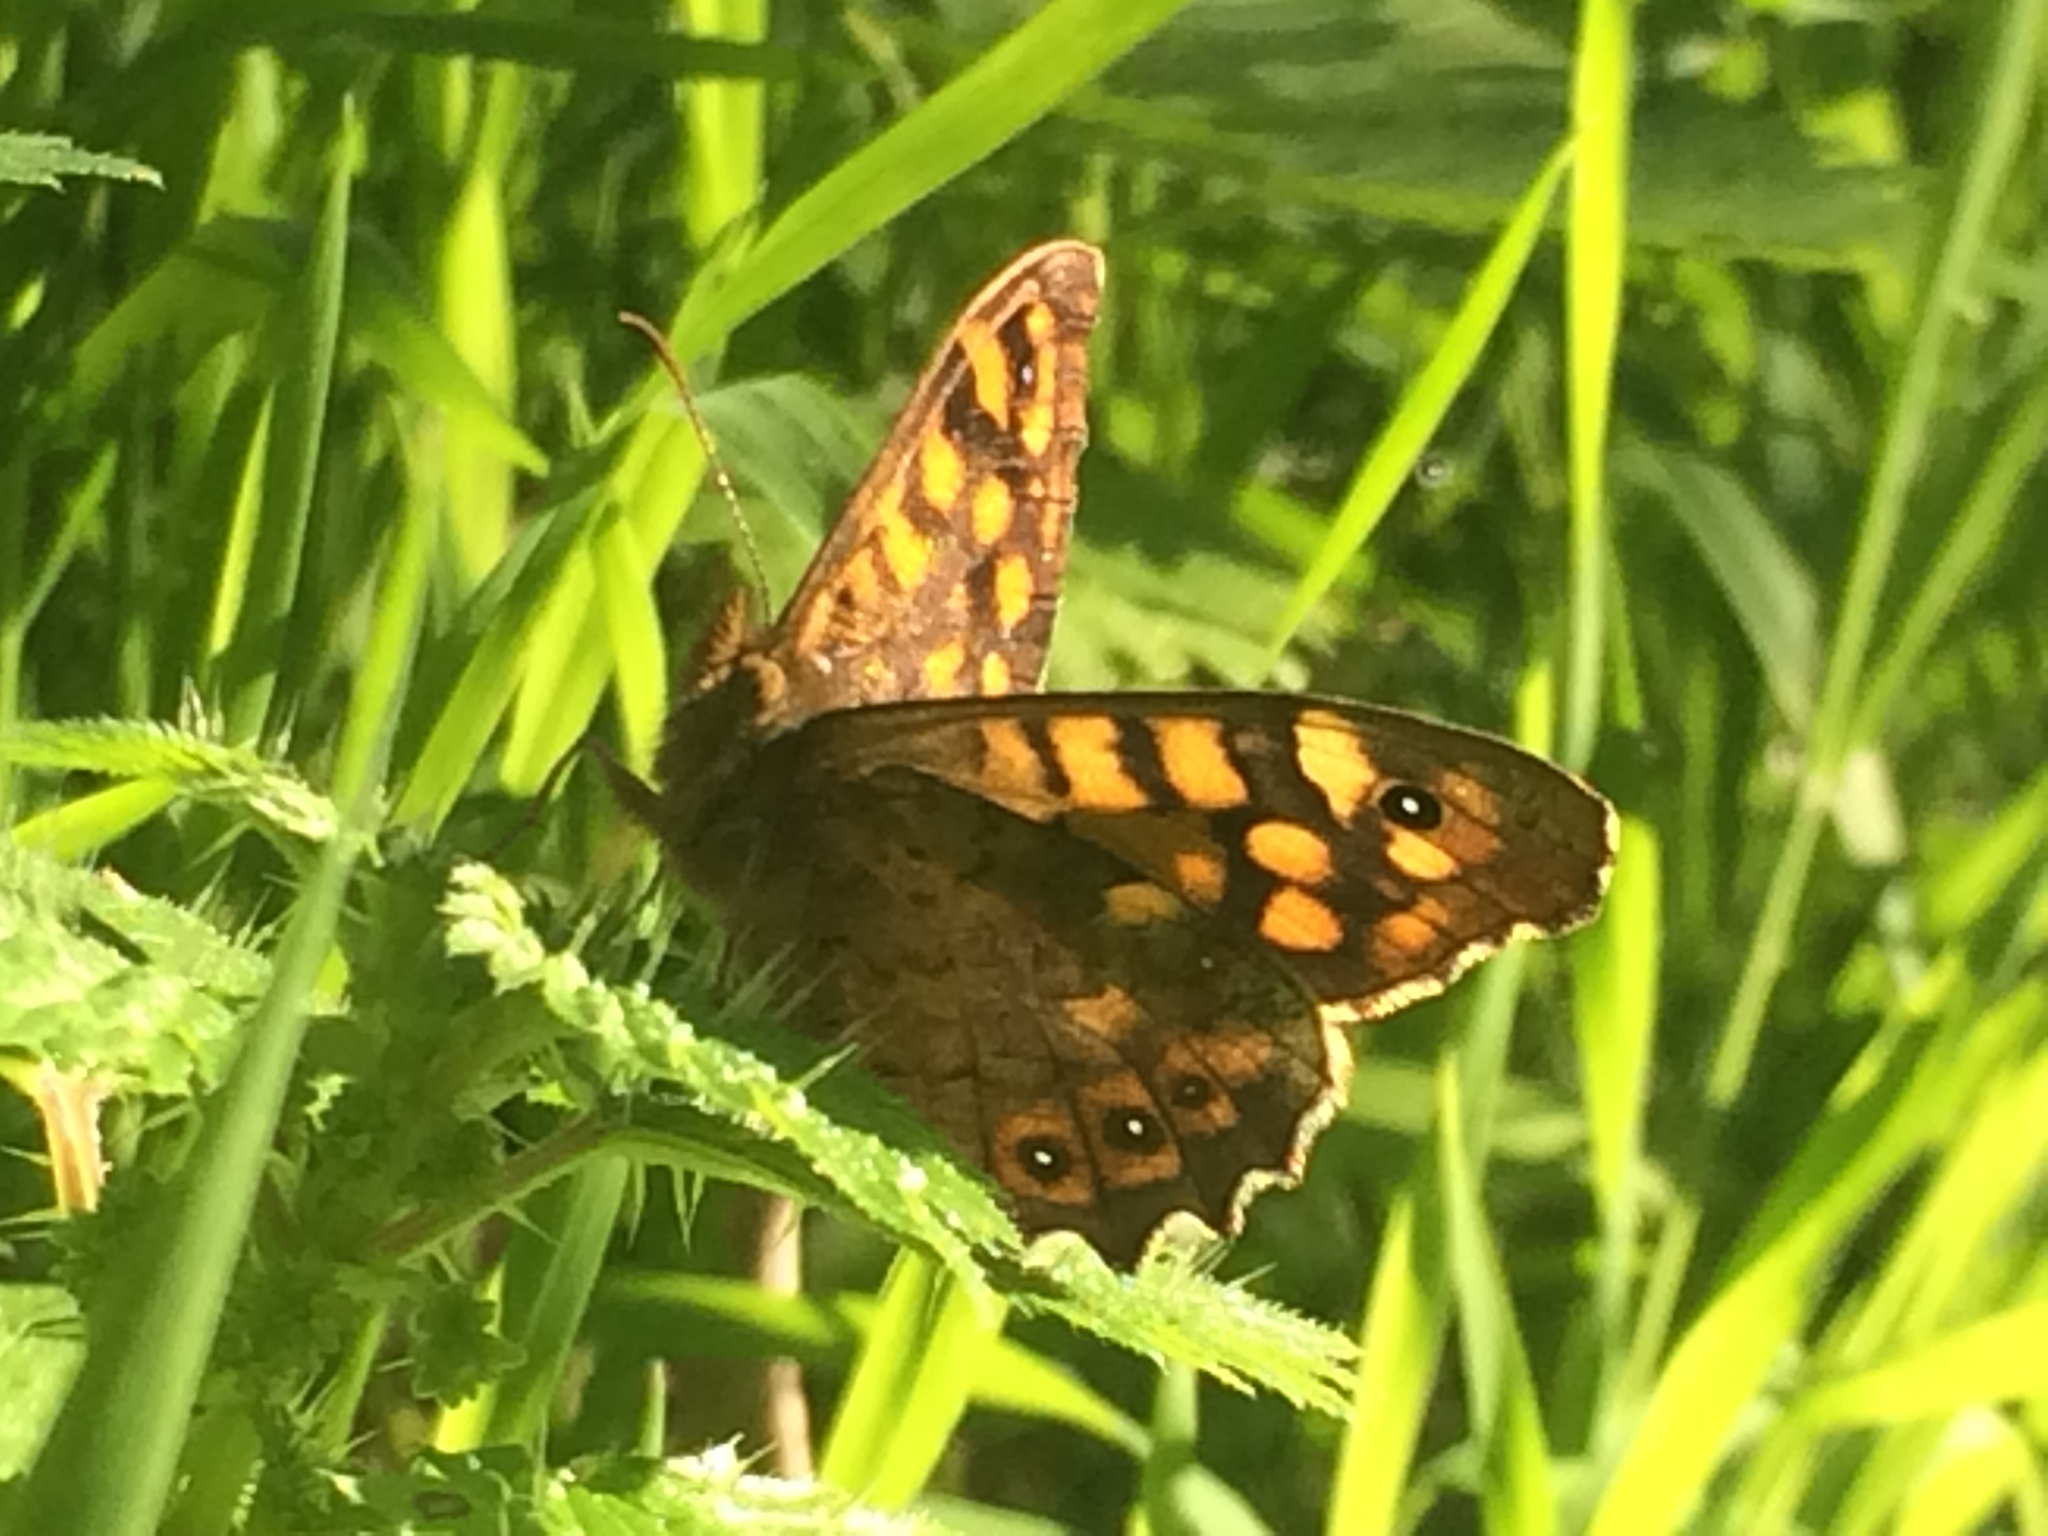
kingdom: Animalia
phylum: Arthropoda
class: Insecta
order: Lepidoptera
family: Nymphalidae
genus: Pararge
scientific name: Pararge aegeria
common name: Speckled wood
